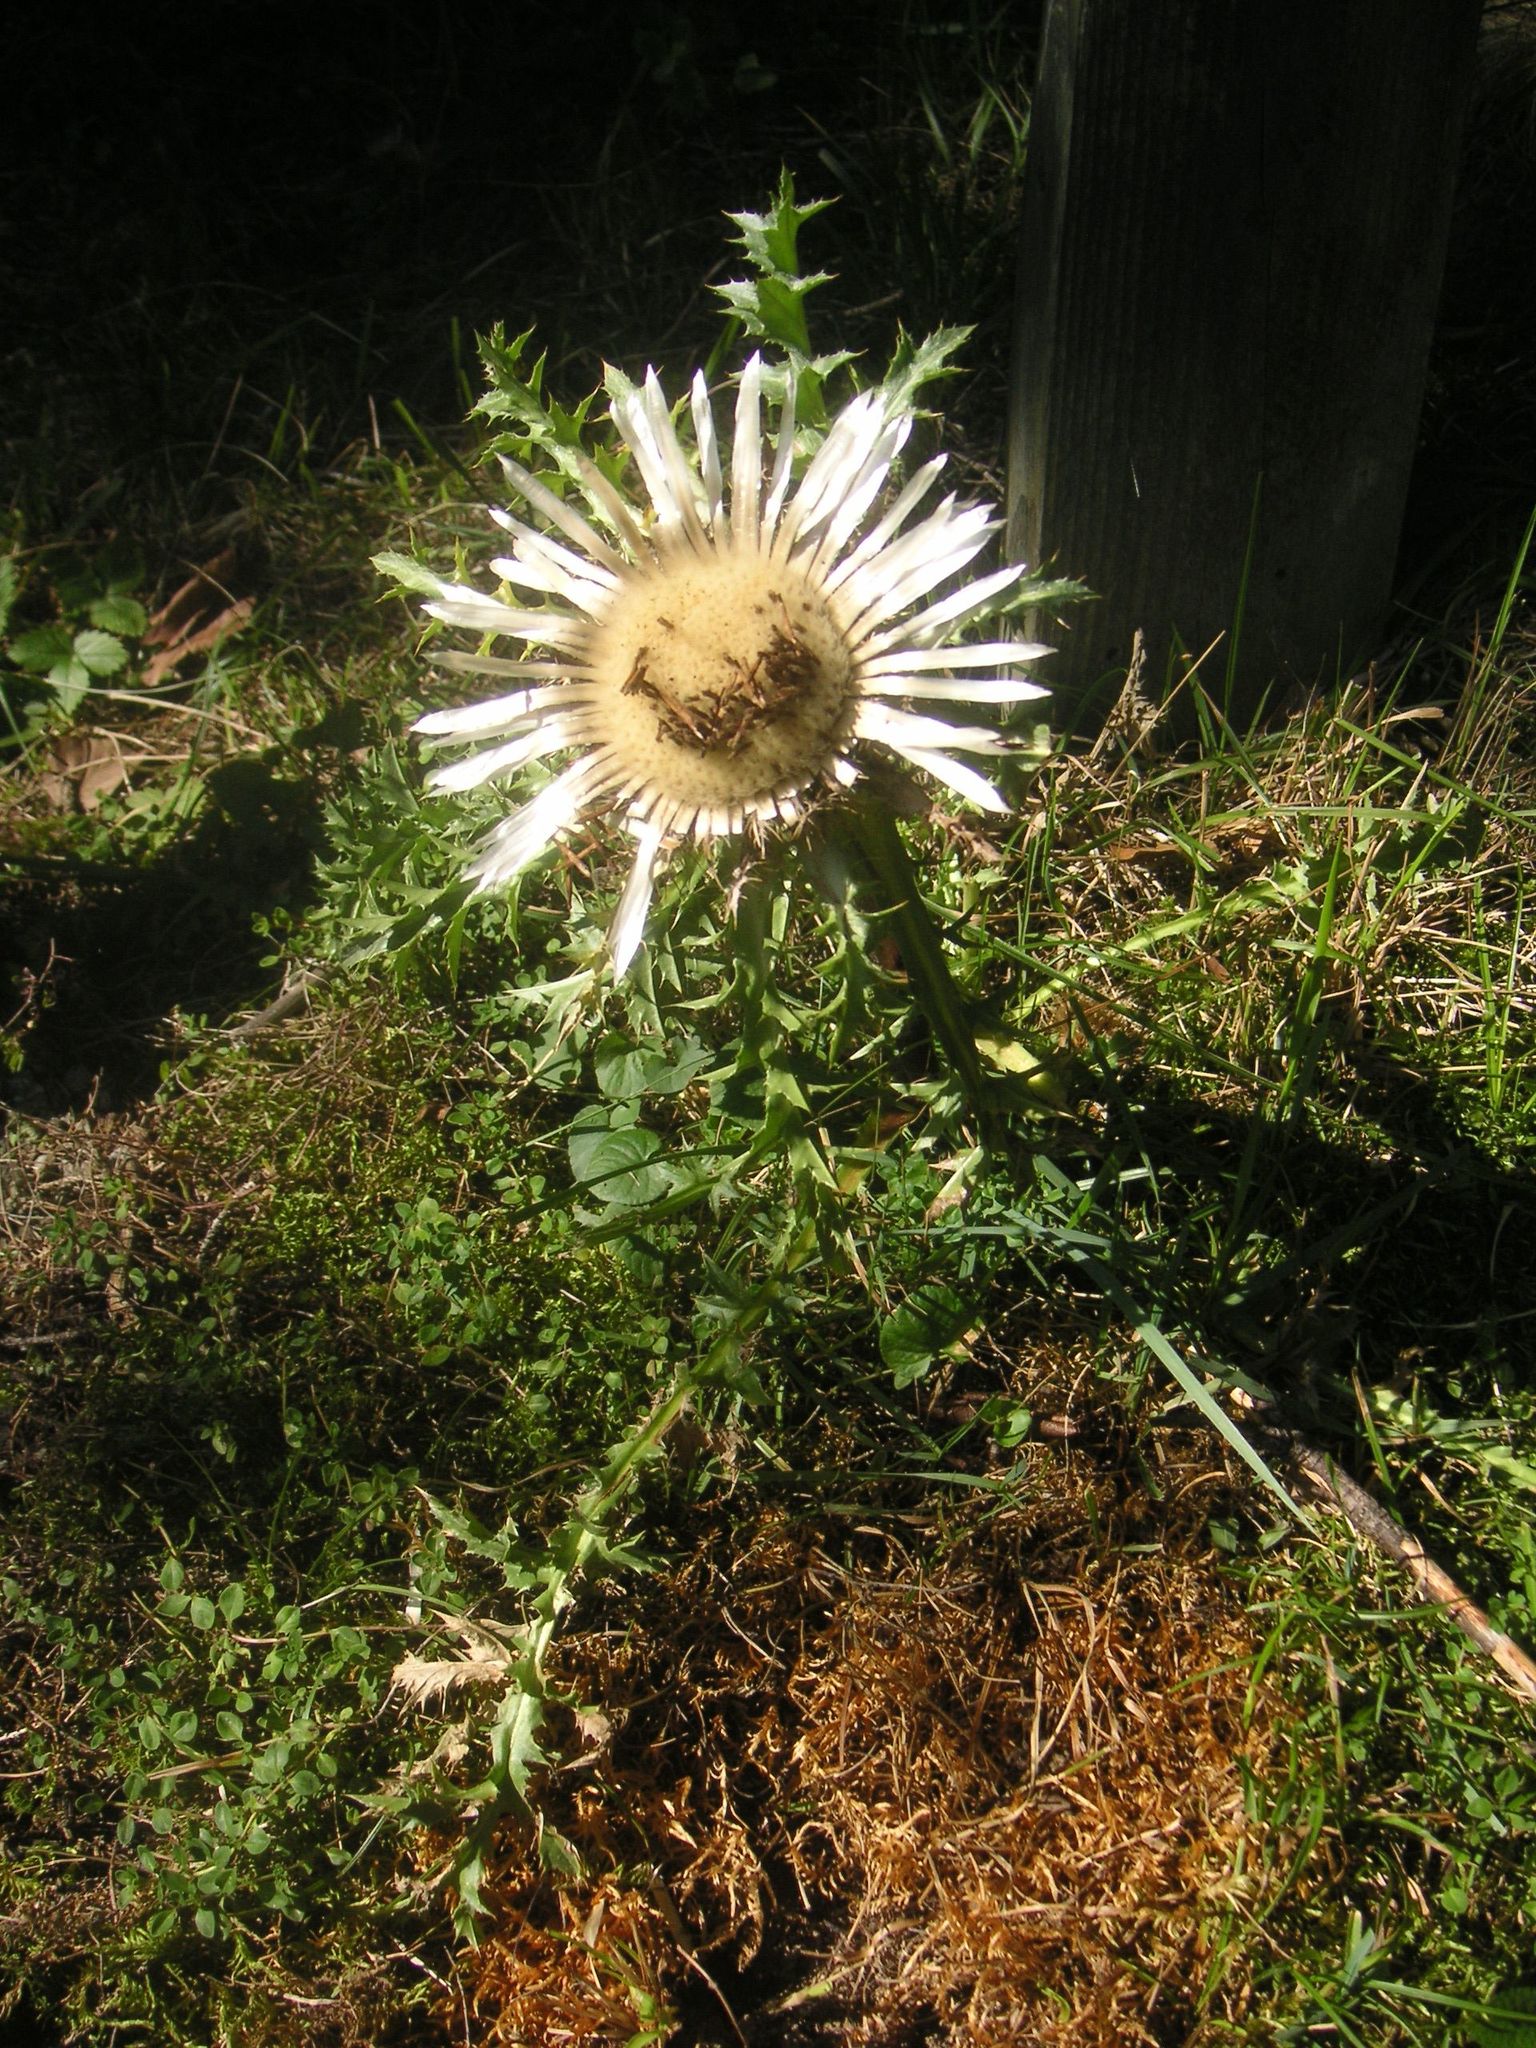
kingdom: Plantae
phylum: Tracheophyta
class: Magnoliopsida
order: Asterales
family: Asteraceae
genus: Carlina
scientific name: Carlina acaulis
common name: Stemless carline thistle
